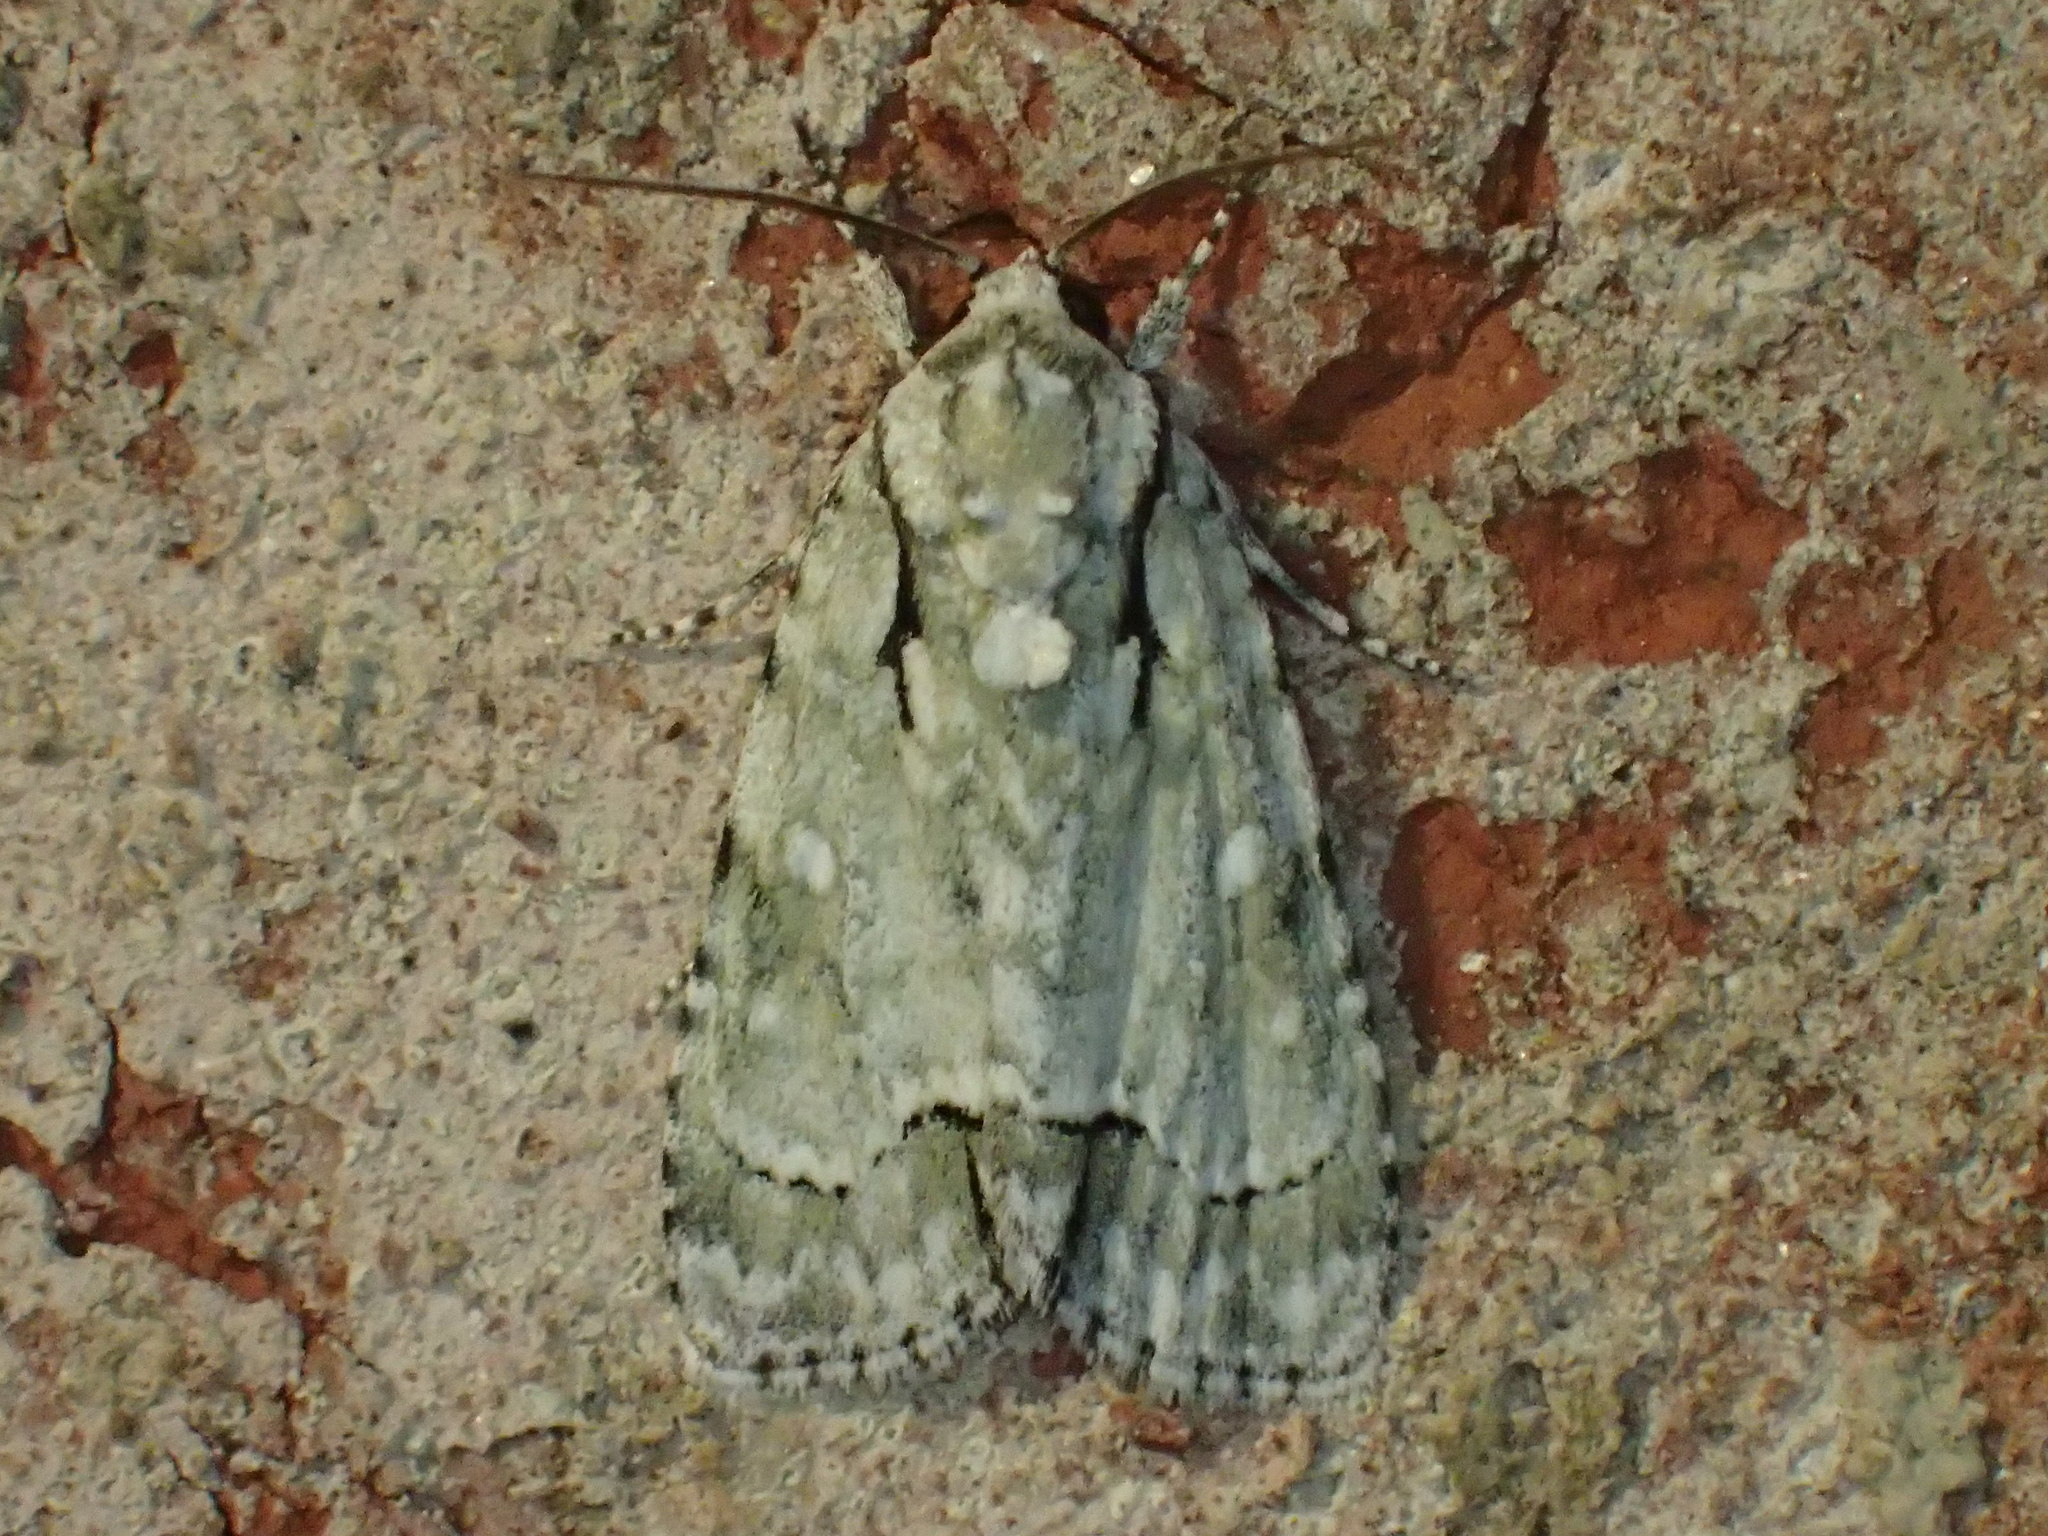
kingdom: Animalia
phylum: Arthropoda
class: Insecta
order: Lepidoptera
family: Noctuidae
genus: Acronicta
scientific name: Acronicta vinnula
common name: Delightful dagger
